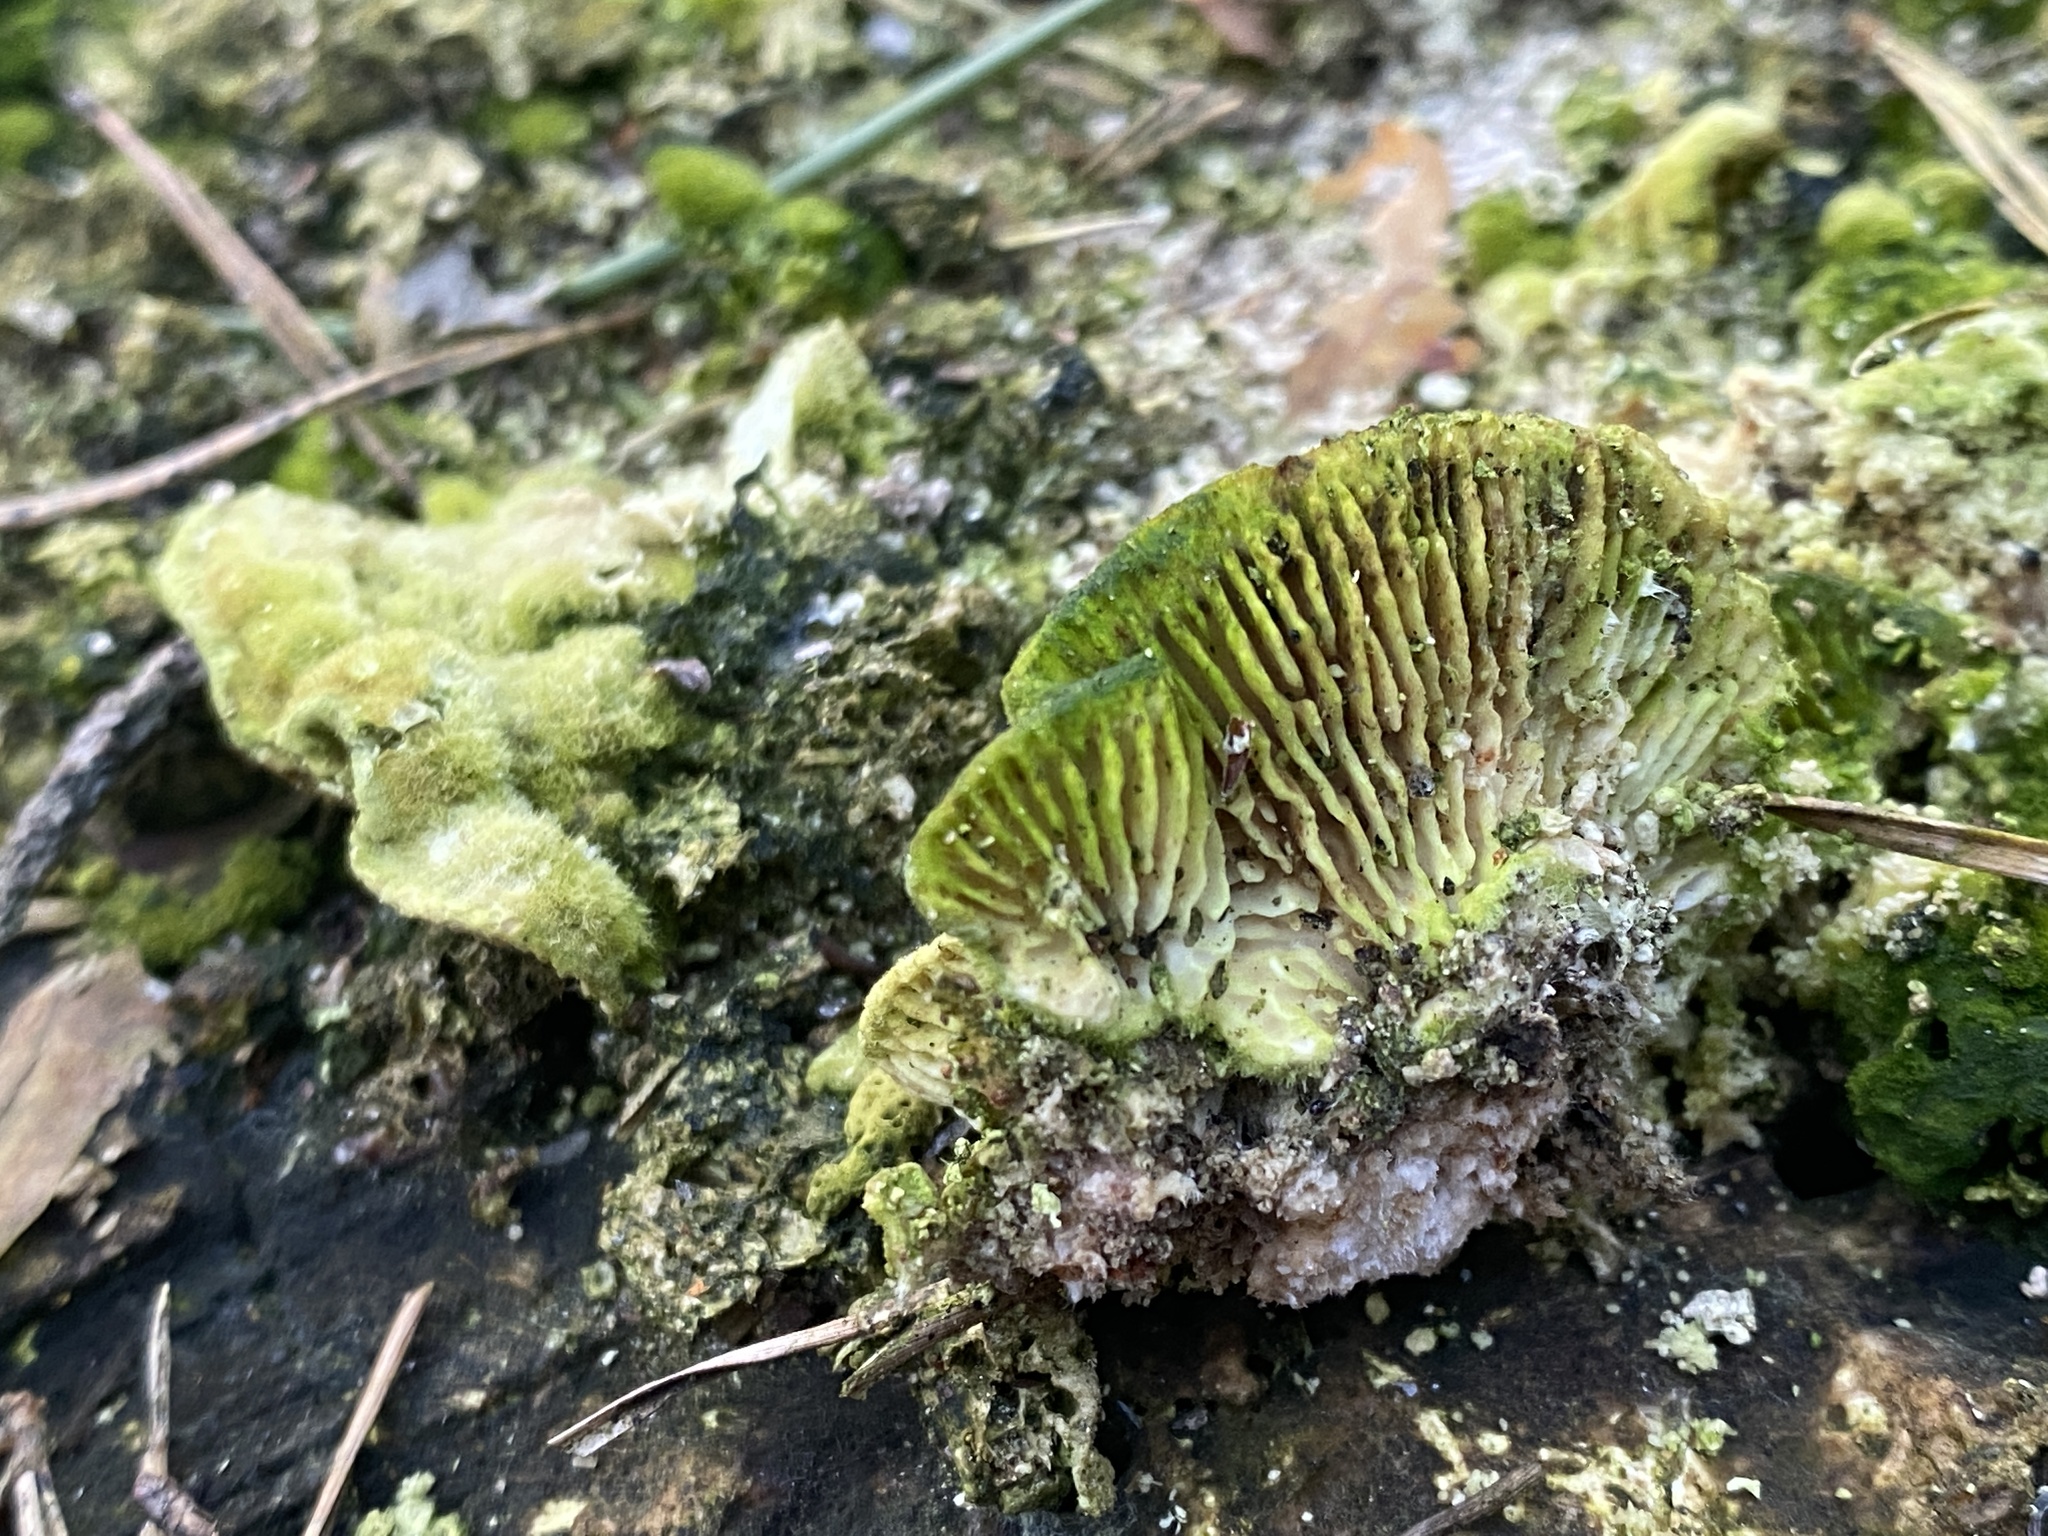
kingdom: Fungi
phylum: Basidiomycota
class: Agaricomycetes
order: Polyporales
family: Polyporaceae
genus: Lenzites
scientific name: Lenzites betulinus
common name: Birch mazegill
